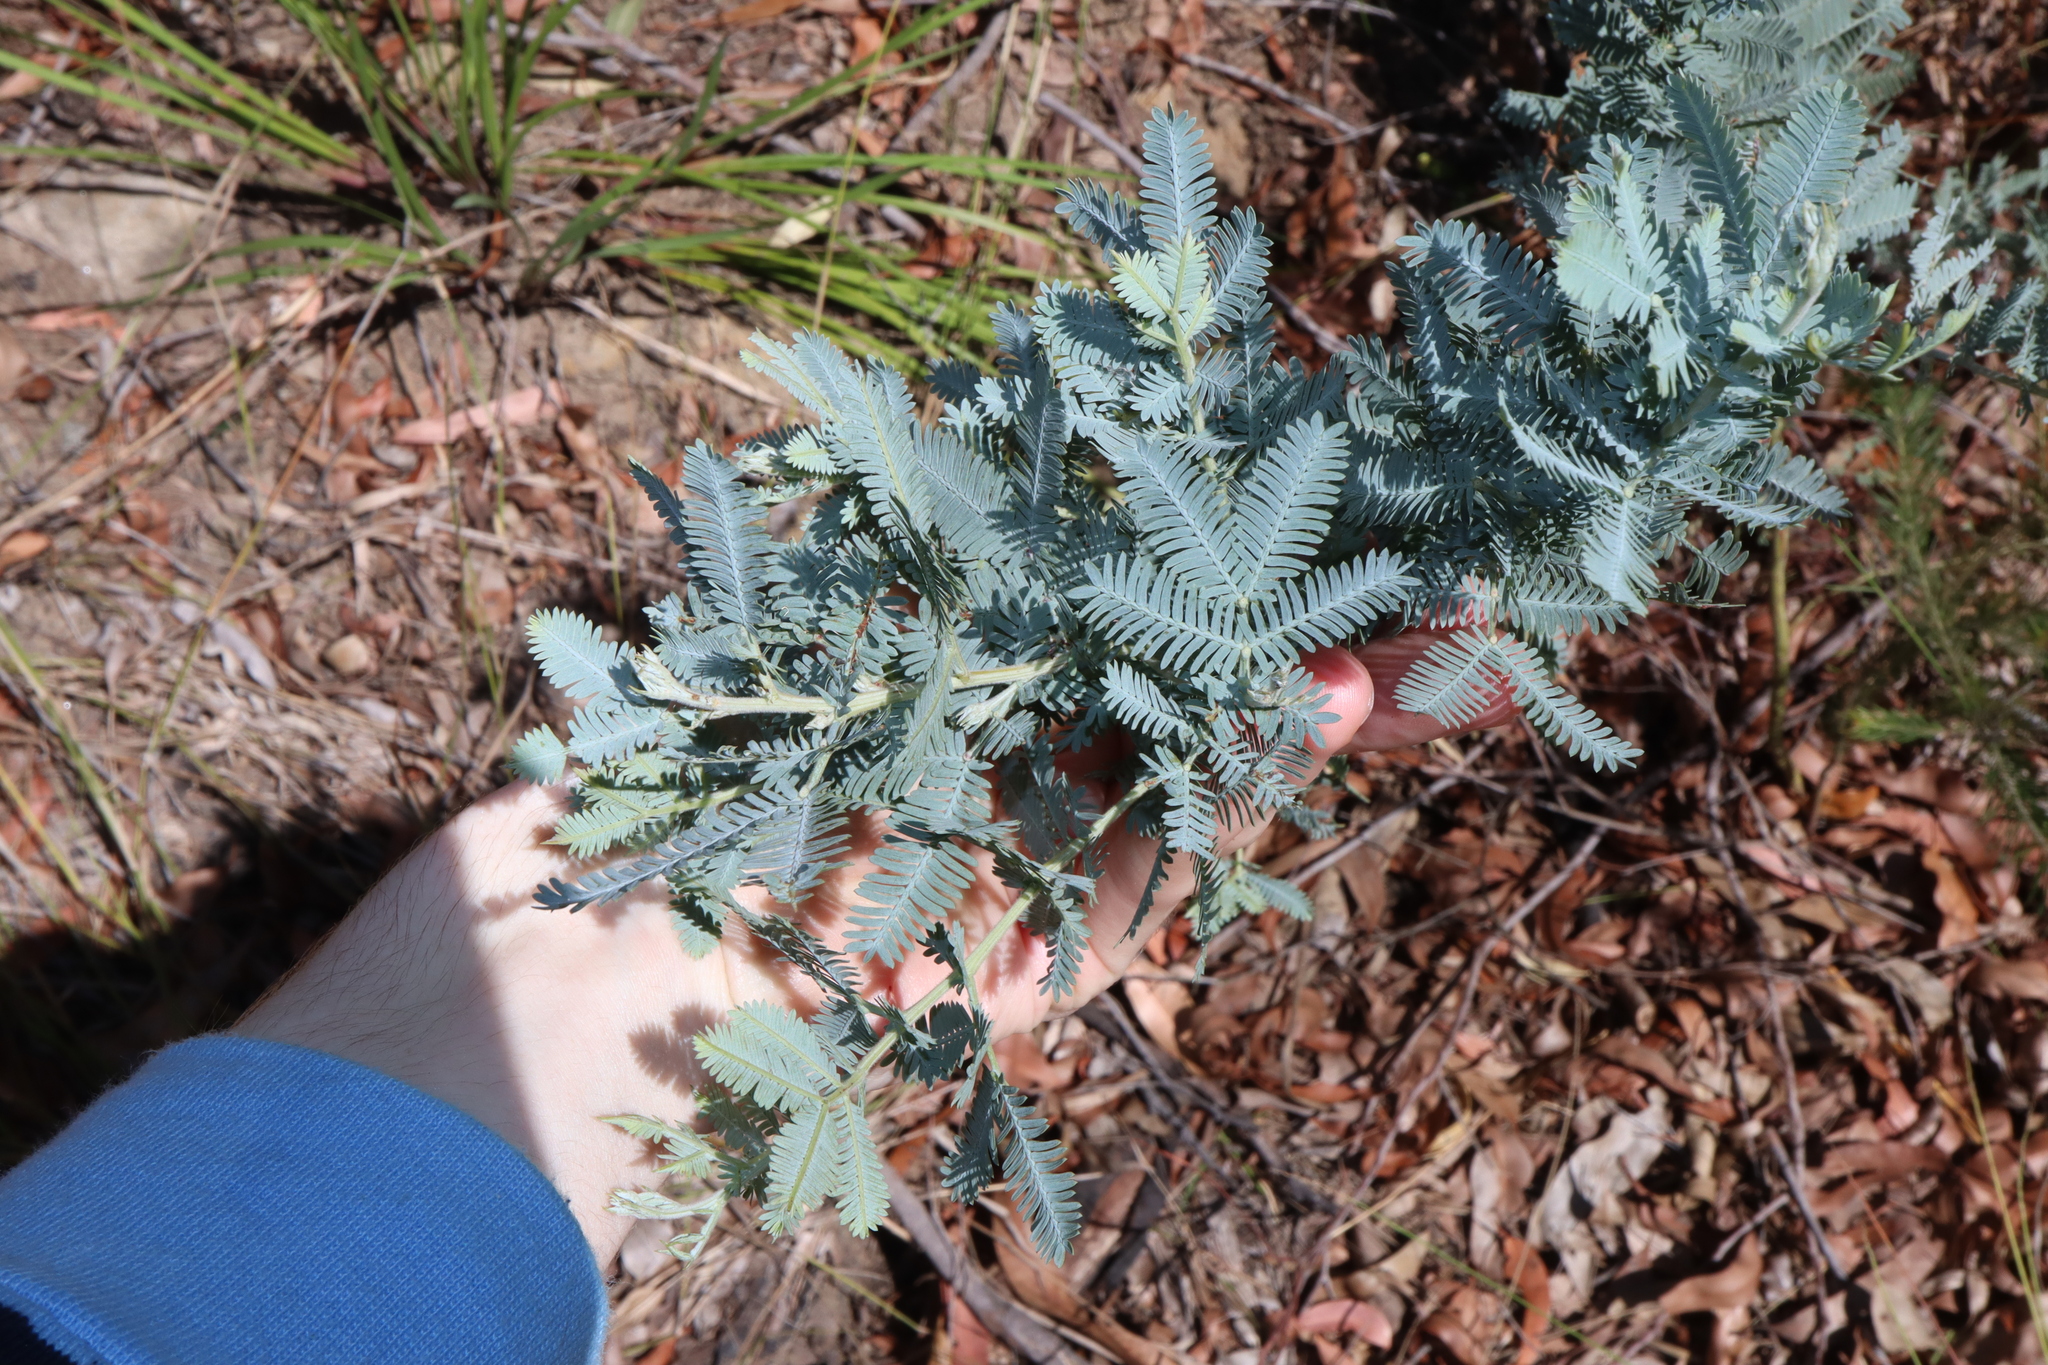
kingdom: Plantae
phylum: Tracheophyta
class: Magnoliopsida
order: Fabales
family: Fabaceae
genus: Acacia
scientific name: Acacia baileyana
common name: Cootamundra wattle
